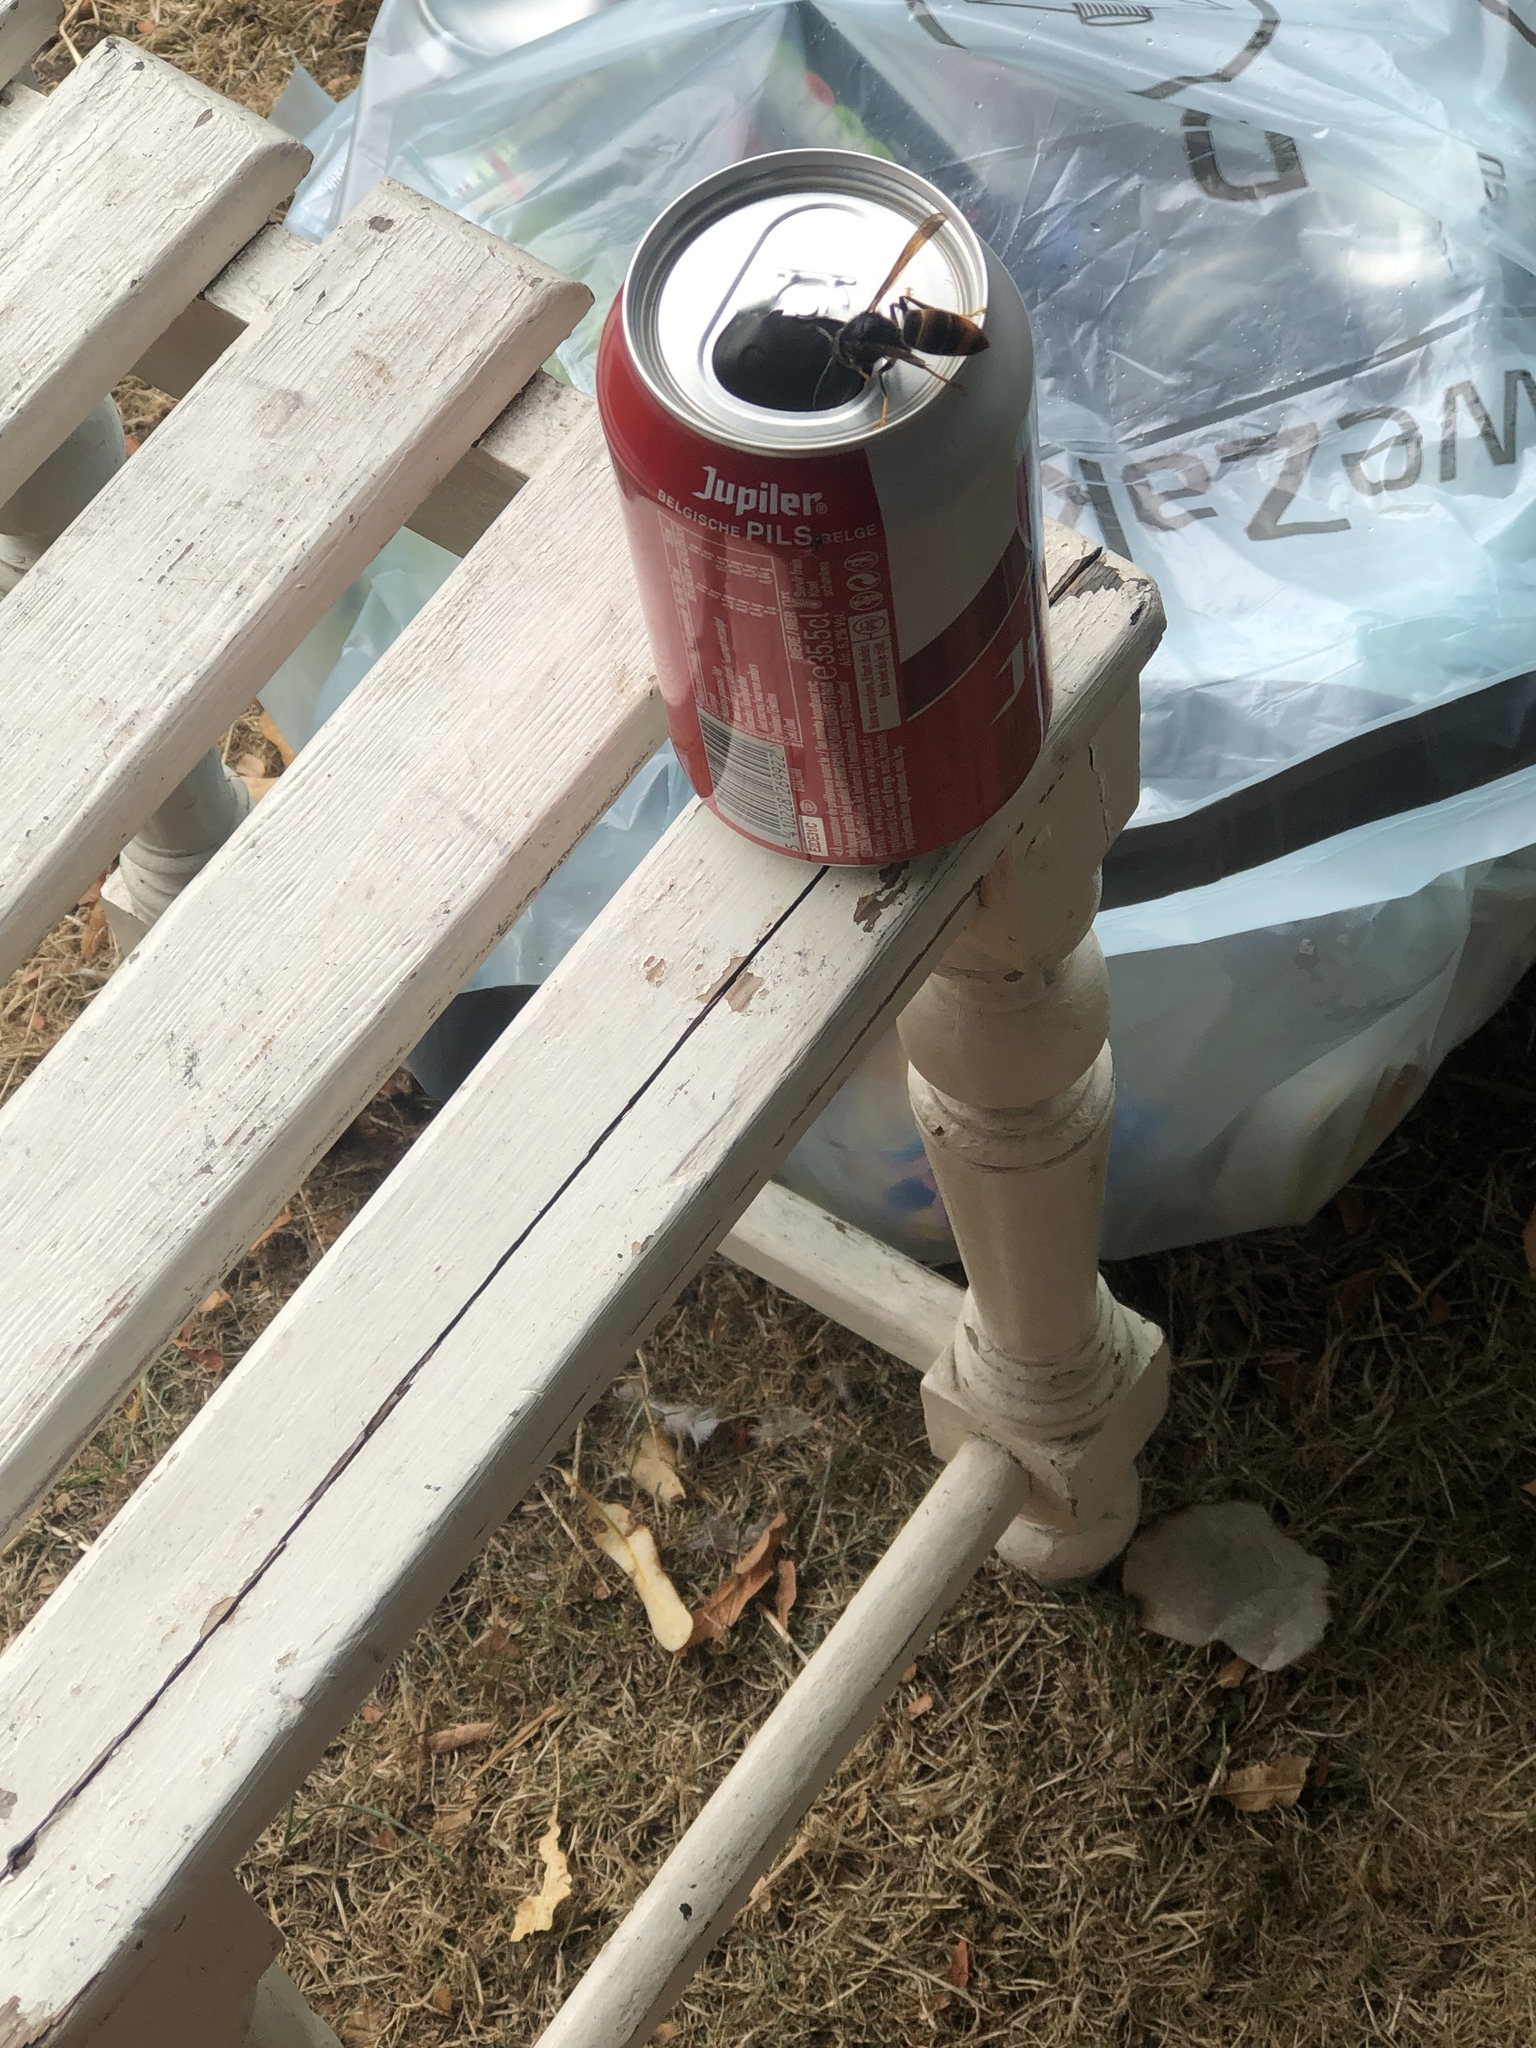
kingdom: Animalia
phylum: Arthropoda
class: Insecta
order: Hymenoptera
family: Vespidae
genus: Vespa
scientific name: Vespa velutina
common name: Asian hornet
